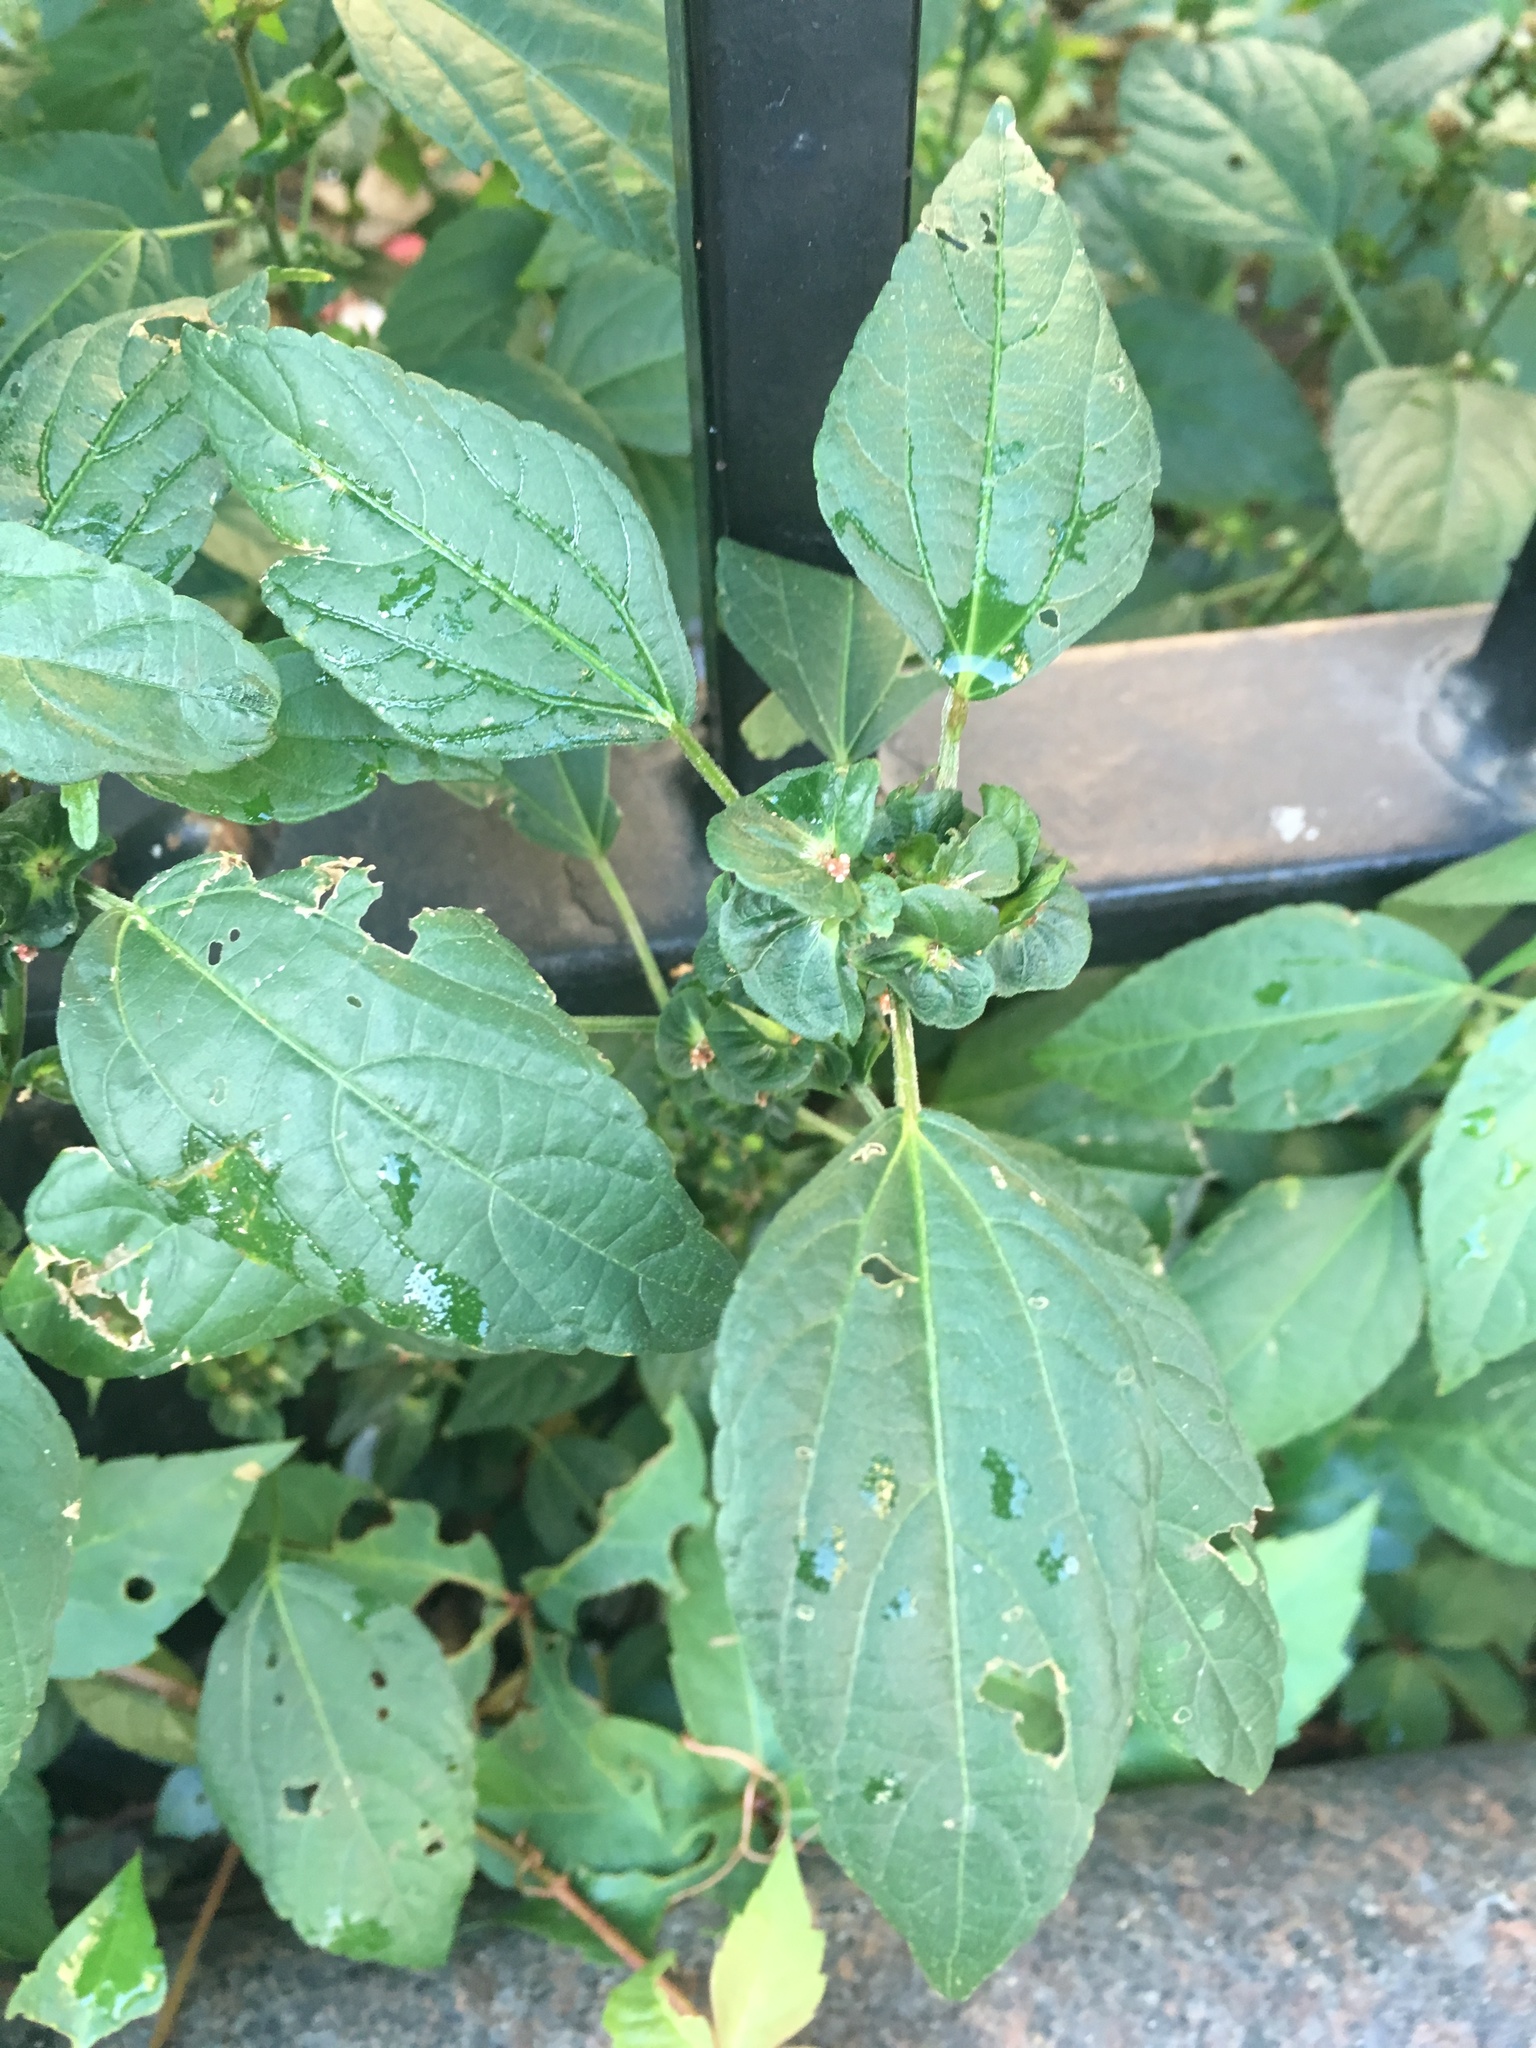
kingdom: Plantae
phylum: Tracheophyta
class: Magnoliopsida
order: Malpighiales
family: Euphorbiaceae
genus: Acalypha
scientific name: Acalypha australis
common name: Asian copperleaf
